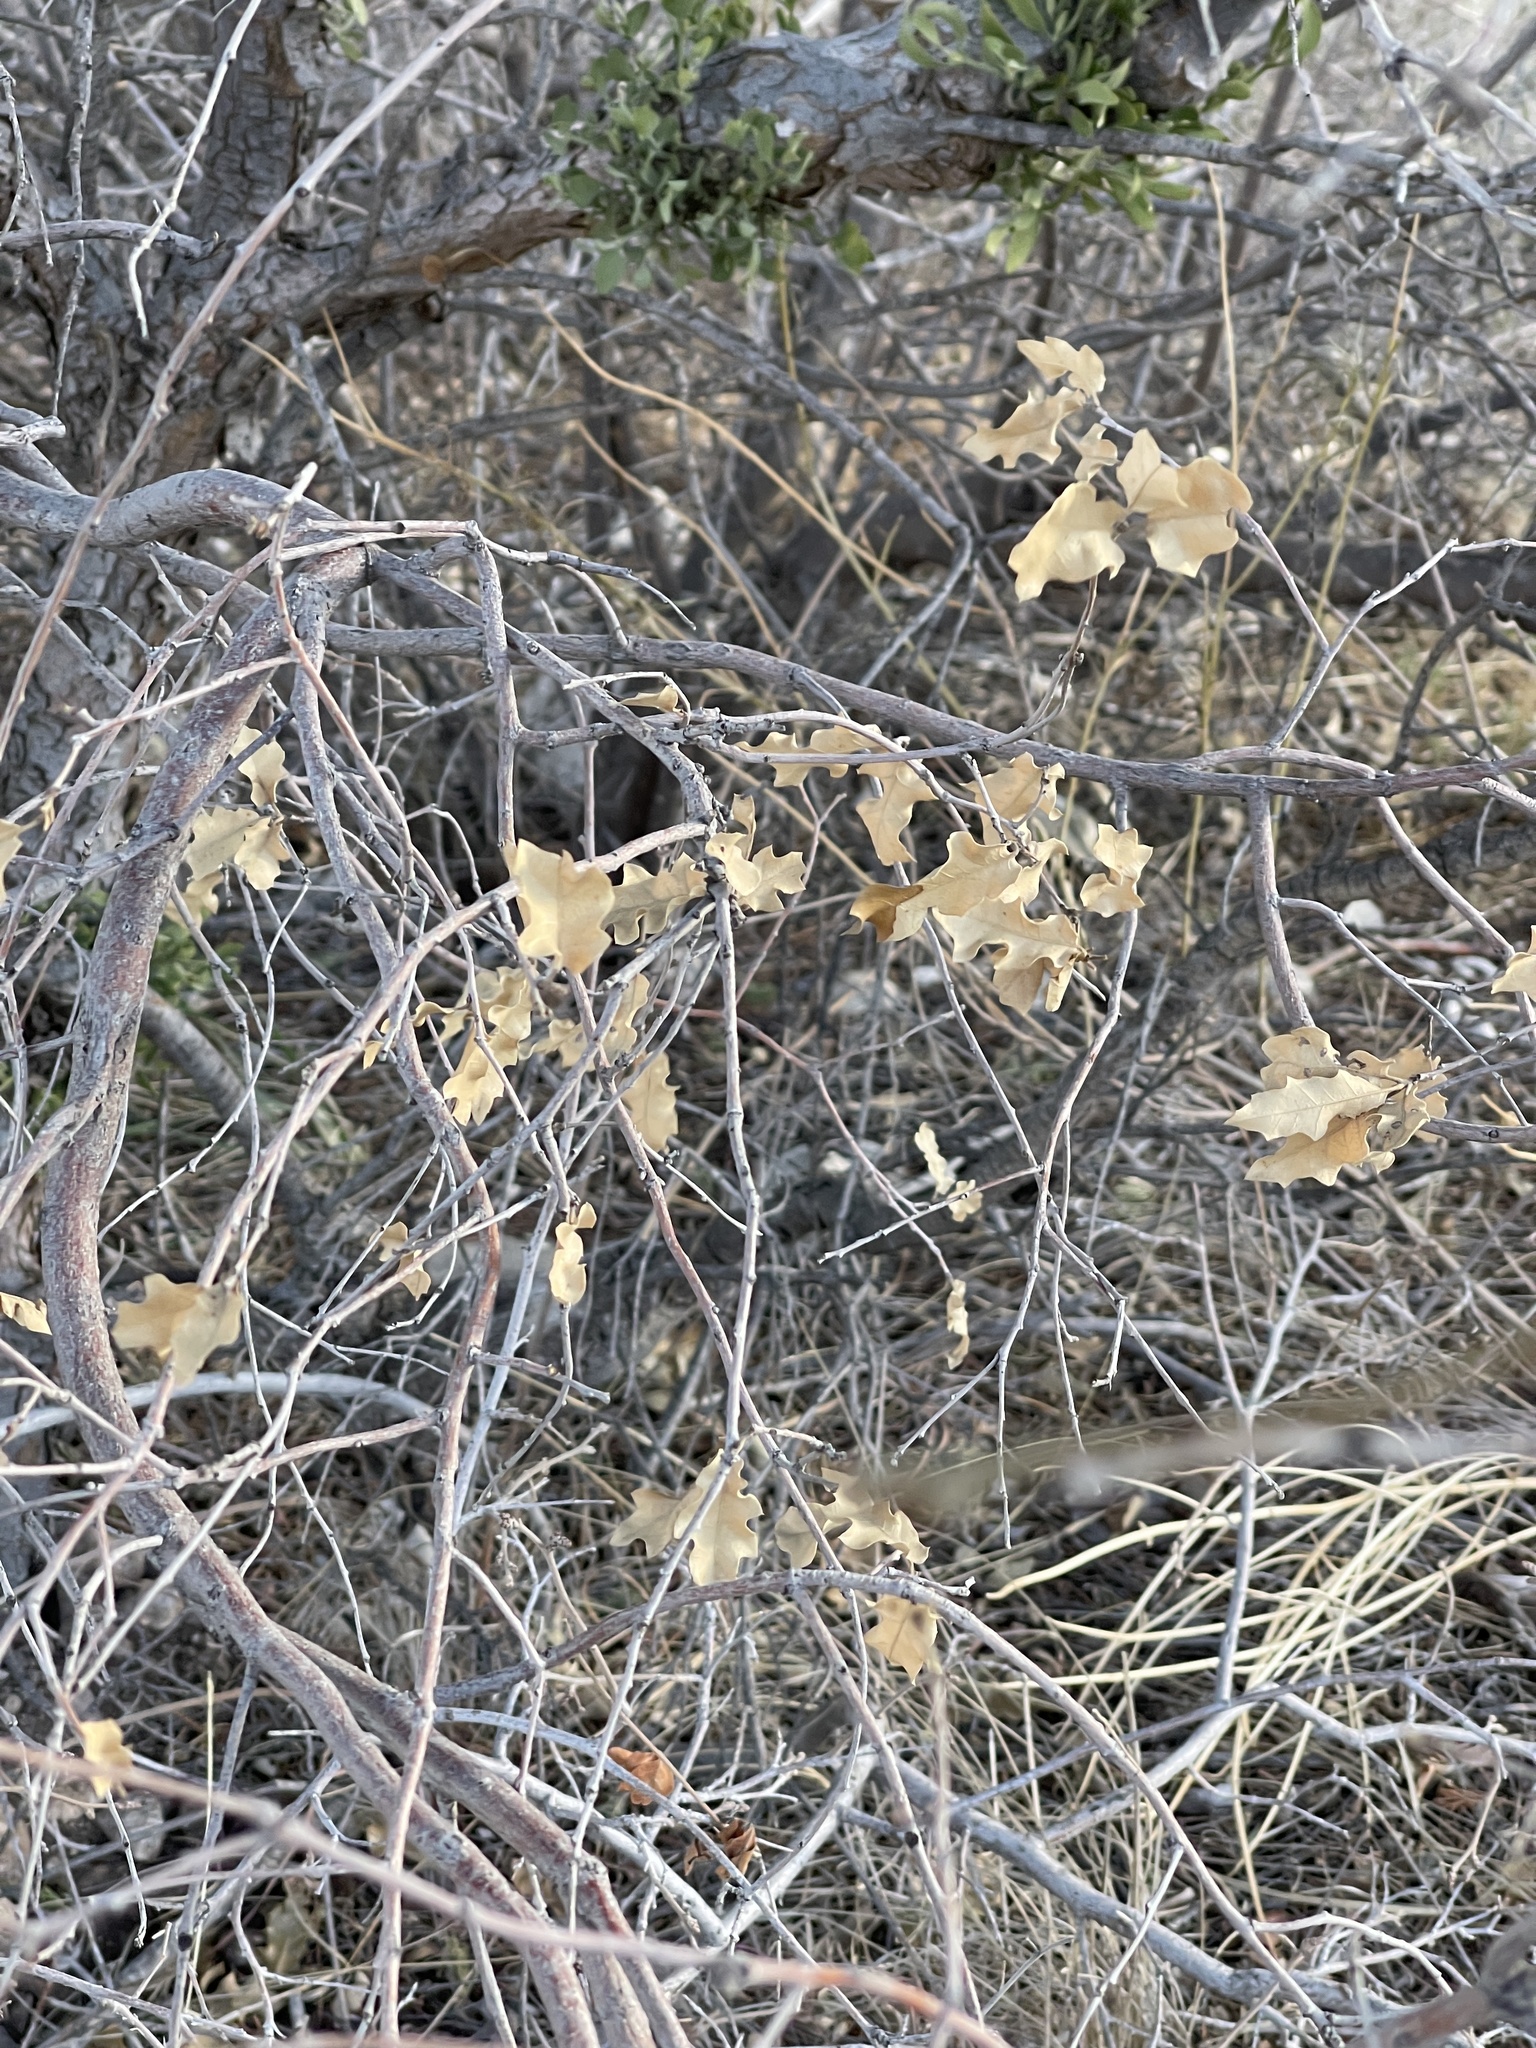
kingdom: Plantae
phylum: Tracheophyta
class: Magnoliopsida
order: Fagales
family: Fagaceae
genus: Quercus
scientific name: Quercus pungens
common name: Pungent oak
